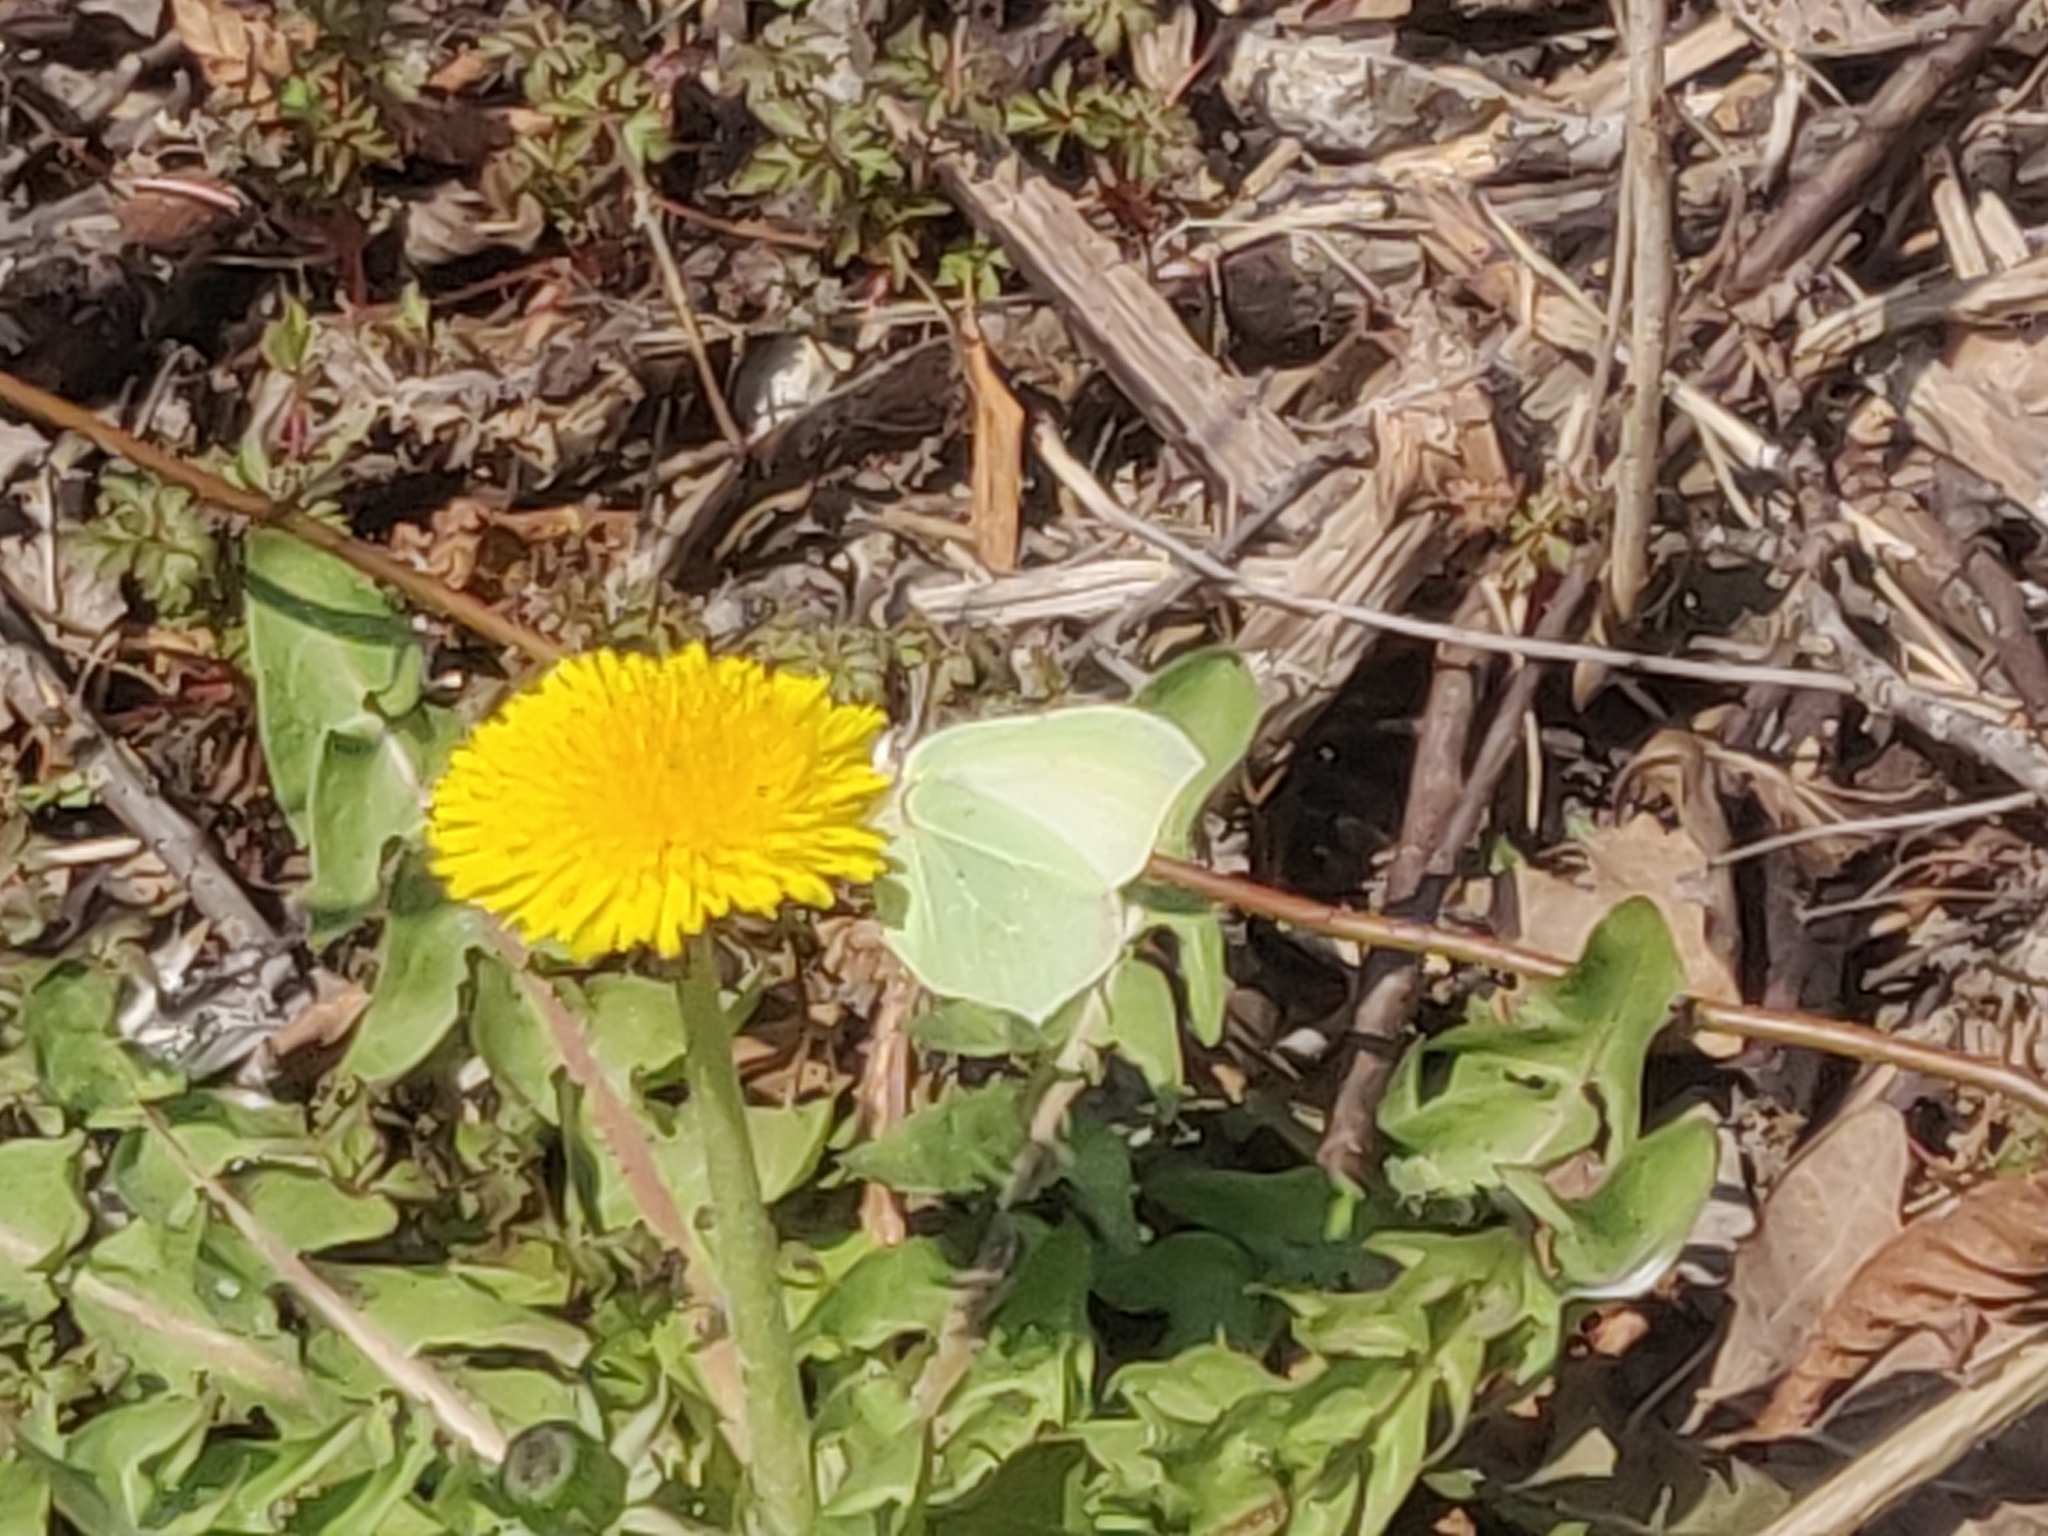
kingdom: Animalia
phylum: Arthropoda
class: Insecta
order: Lepidoptera
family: Pieridae
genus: Gonepteryx
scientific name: Gonepteryx rhamni
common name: Brimstone
